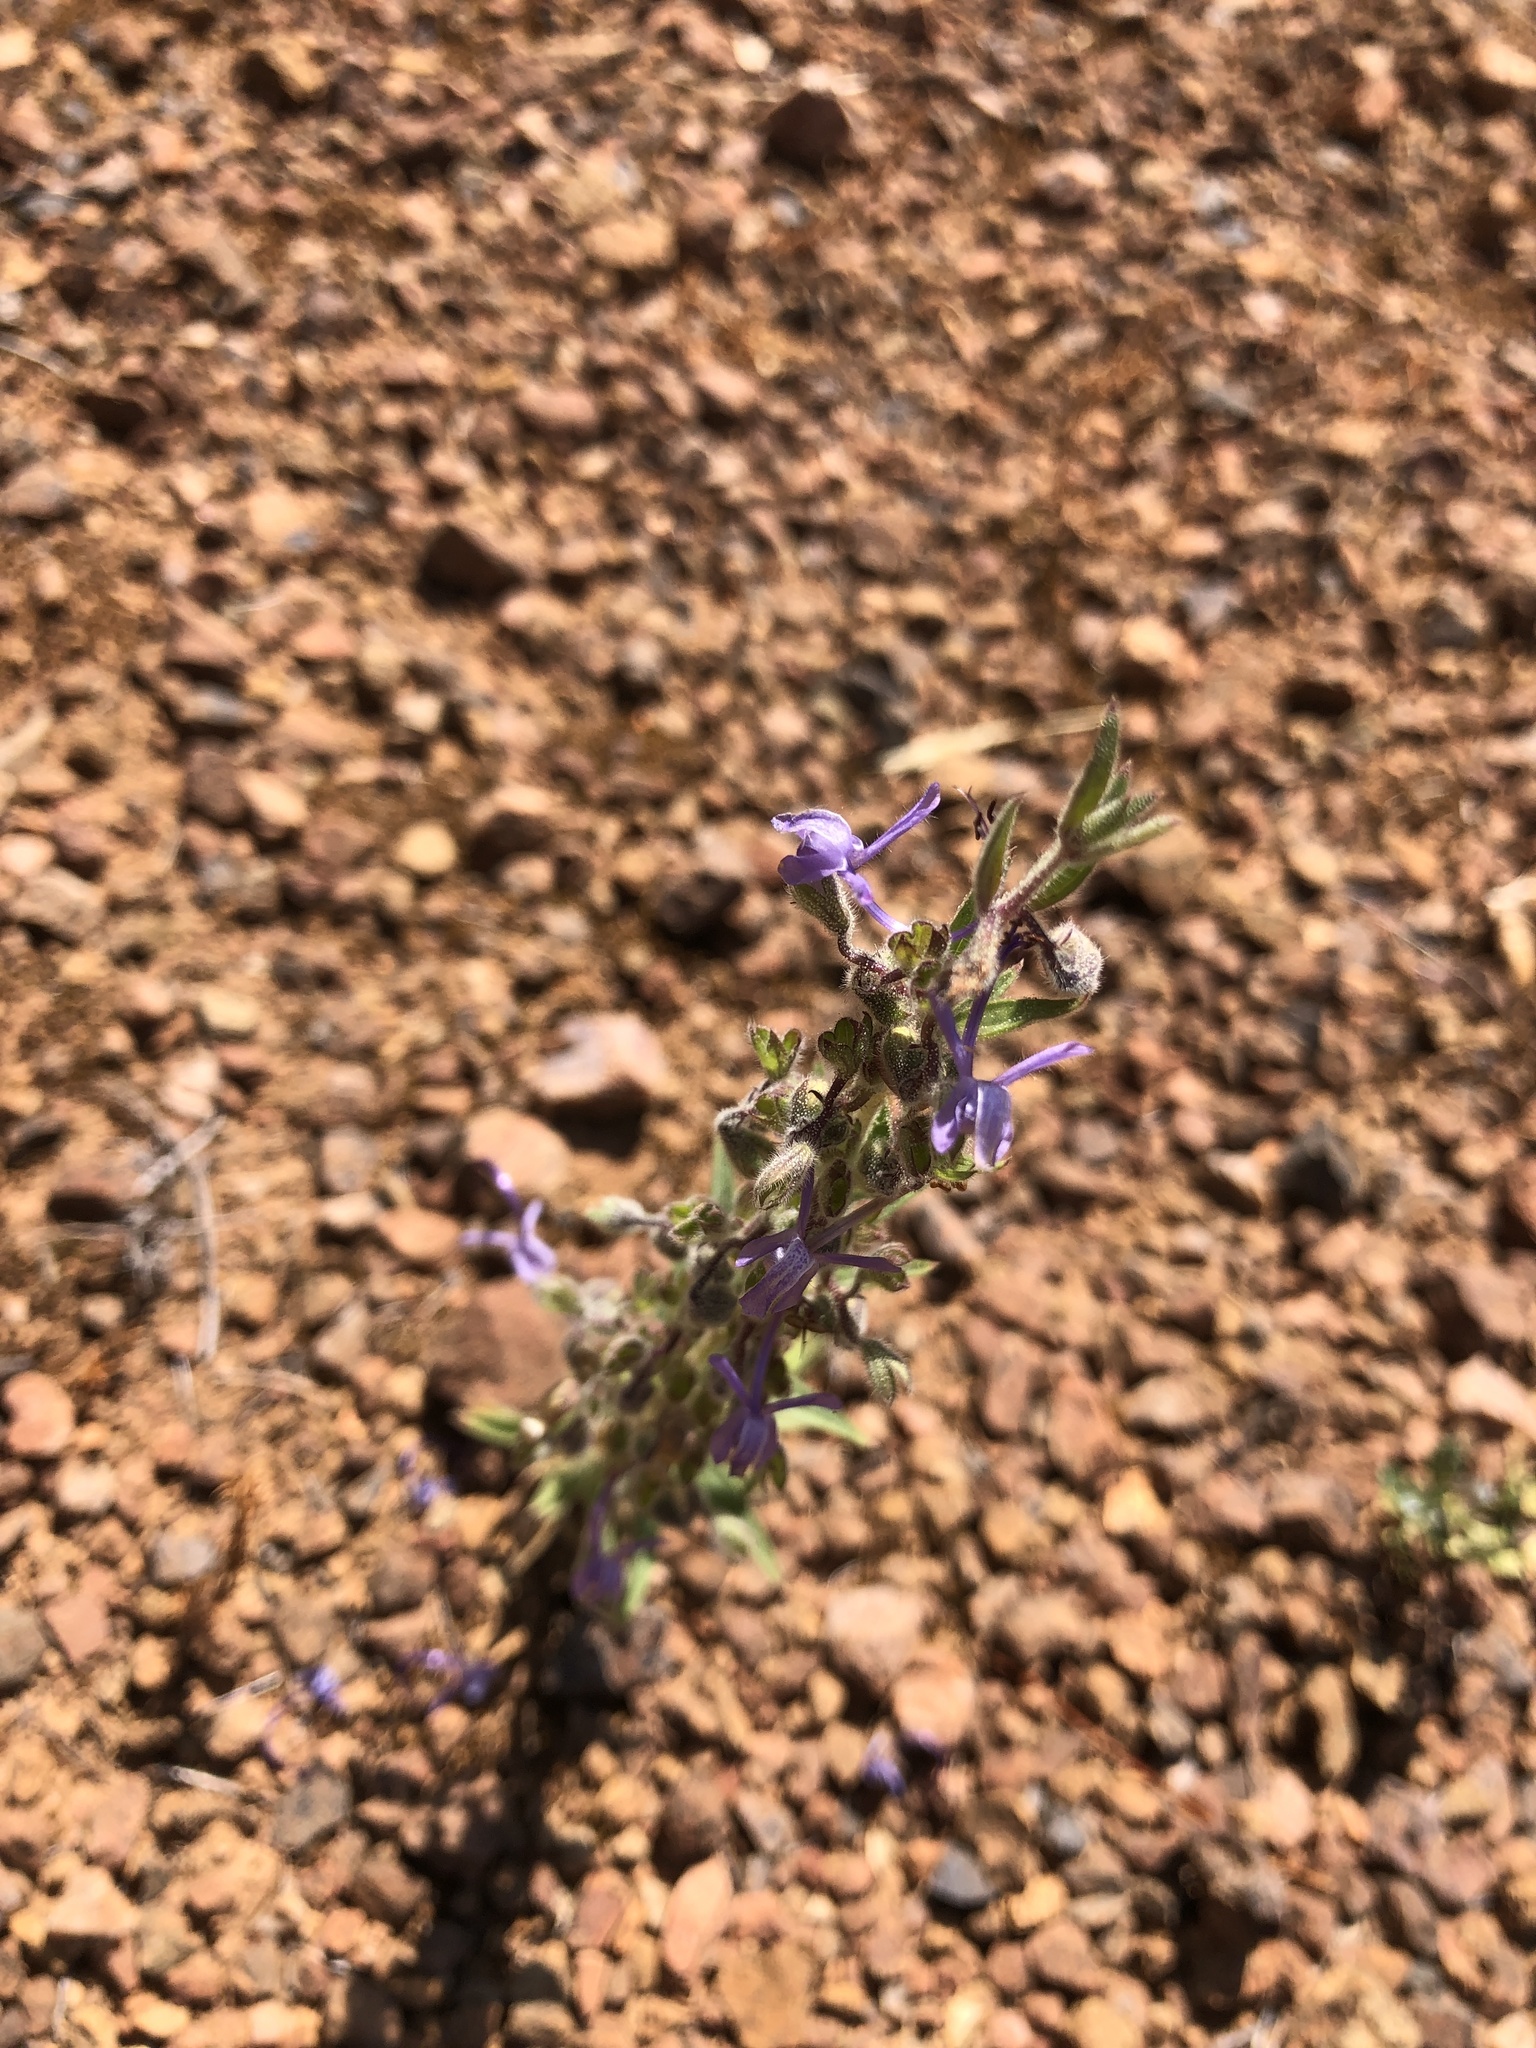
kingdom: Plantae
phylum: Tracheophyta
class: Magnoliopsida
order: Lamiales
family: Lamiaceae
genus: Trichostema
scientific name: Trichostema lanceolatum
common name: Vinegar-weed
